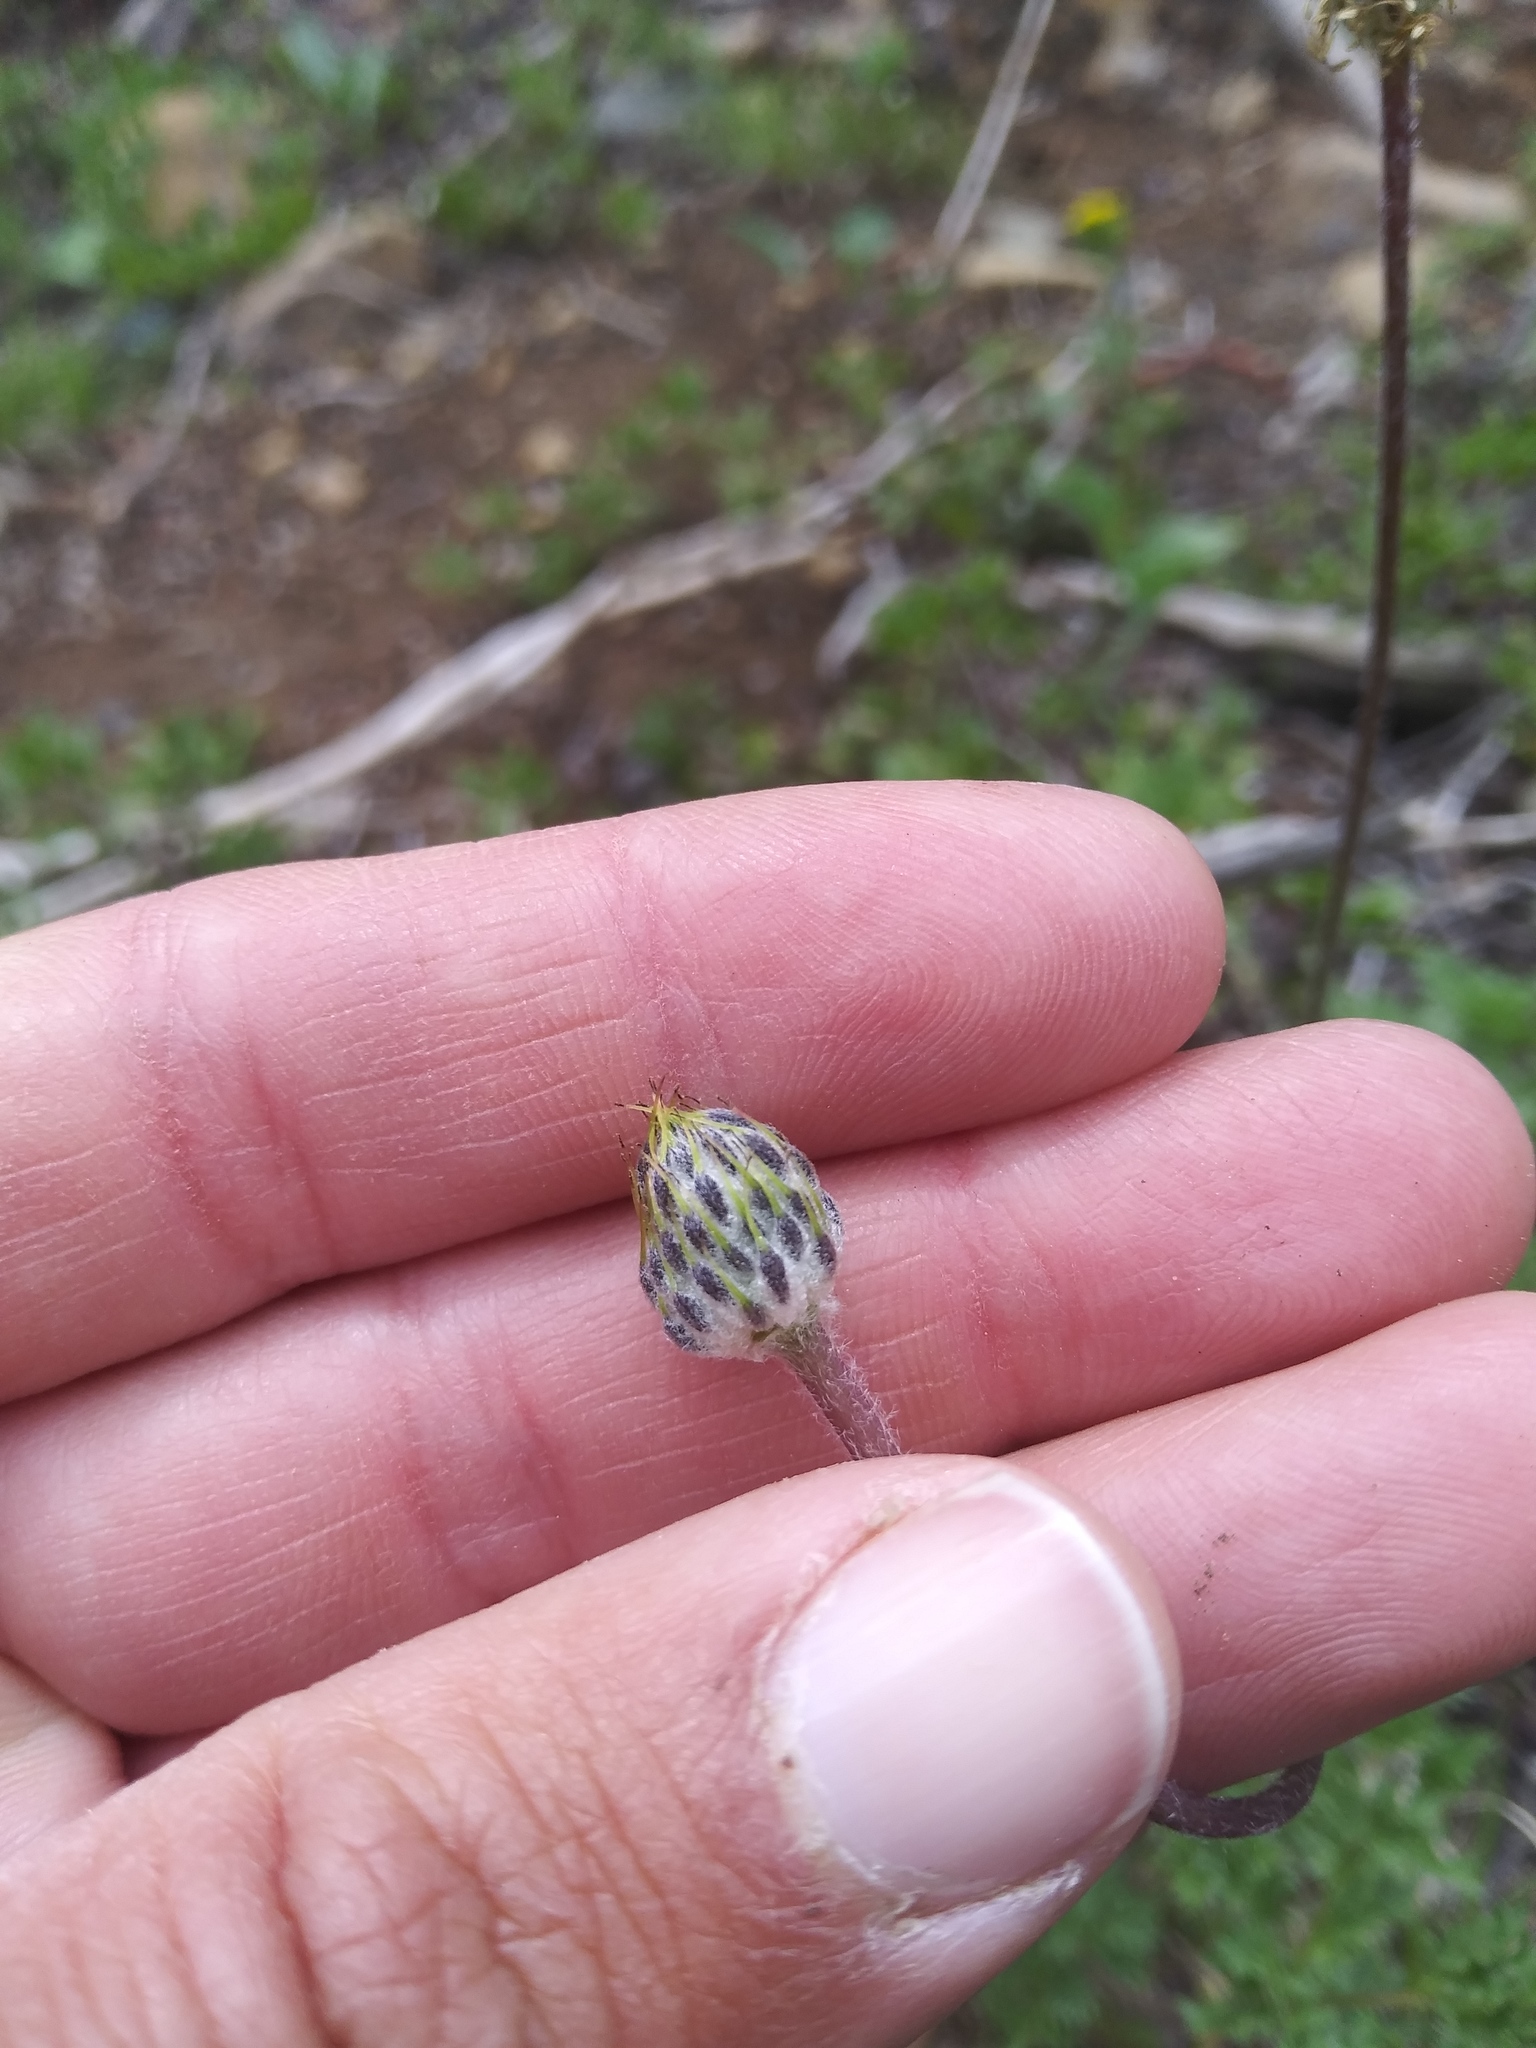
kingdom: Plantae
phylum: Tracheophyta
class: Magnoliopsida
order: Ranunculales
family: Ranunculaceae
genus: Anemone
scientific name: Anemone drummondii
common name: Drummond's anemone
